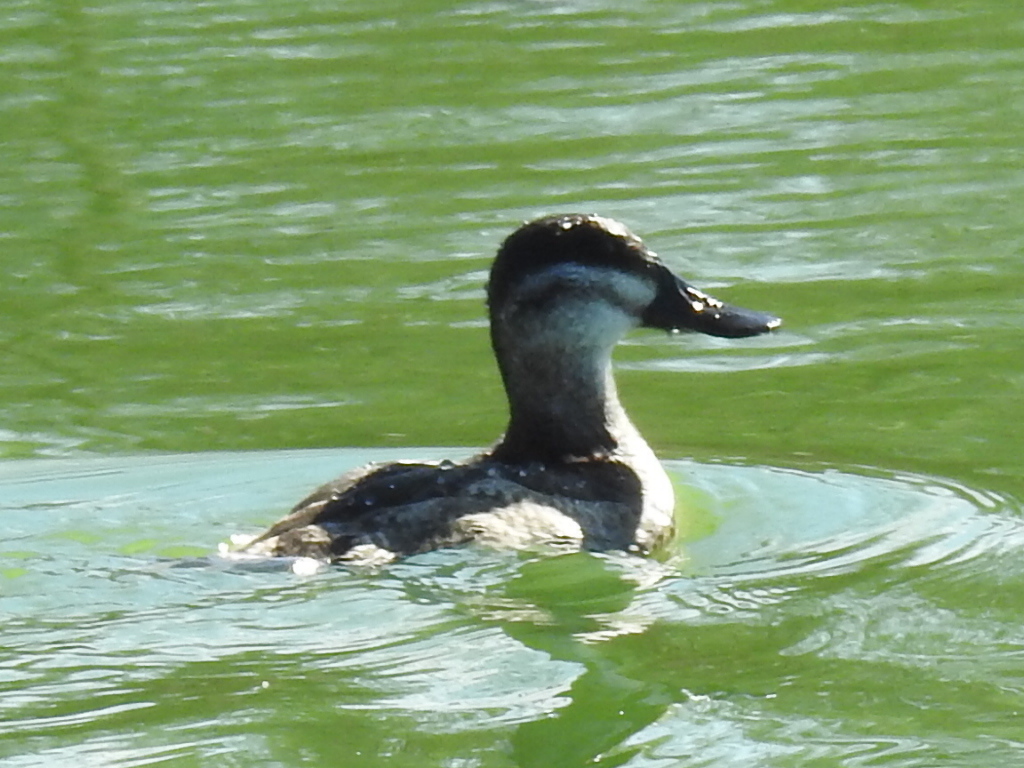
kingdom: Animalia
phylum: Chordata
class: Aves
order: Anseriformes
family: Anatidae
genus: Oxyura
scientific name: Oxyura jamaicensis
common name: Ruddy duck
